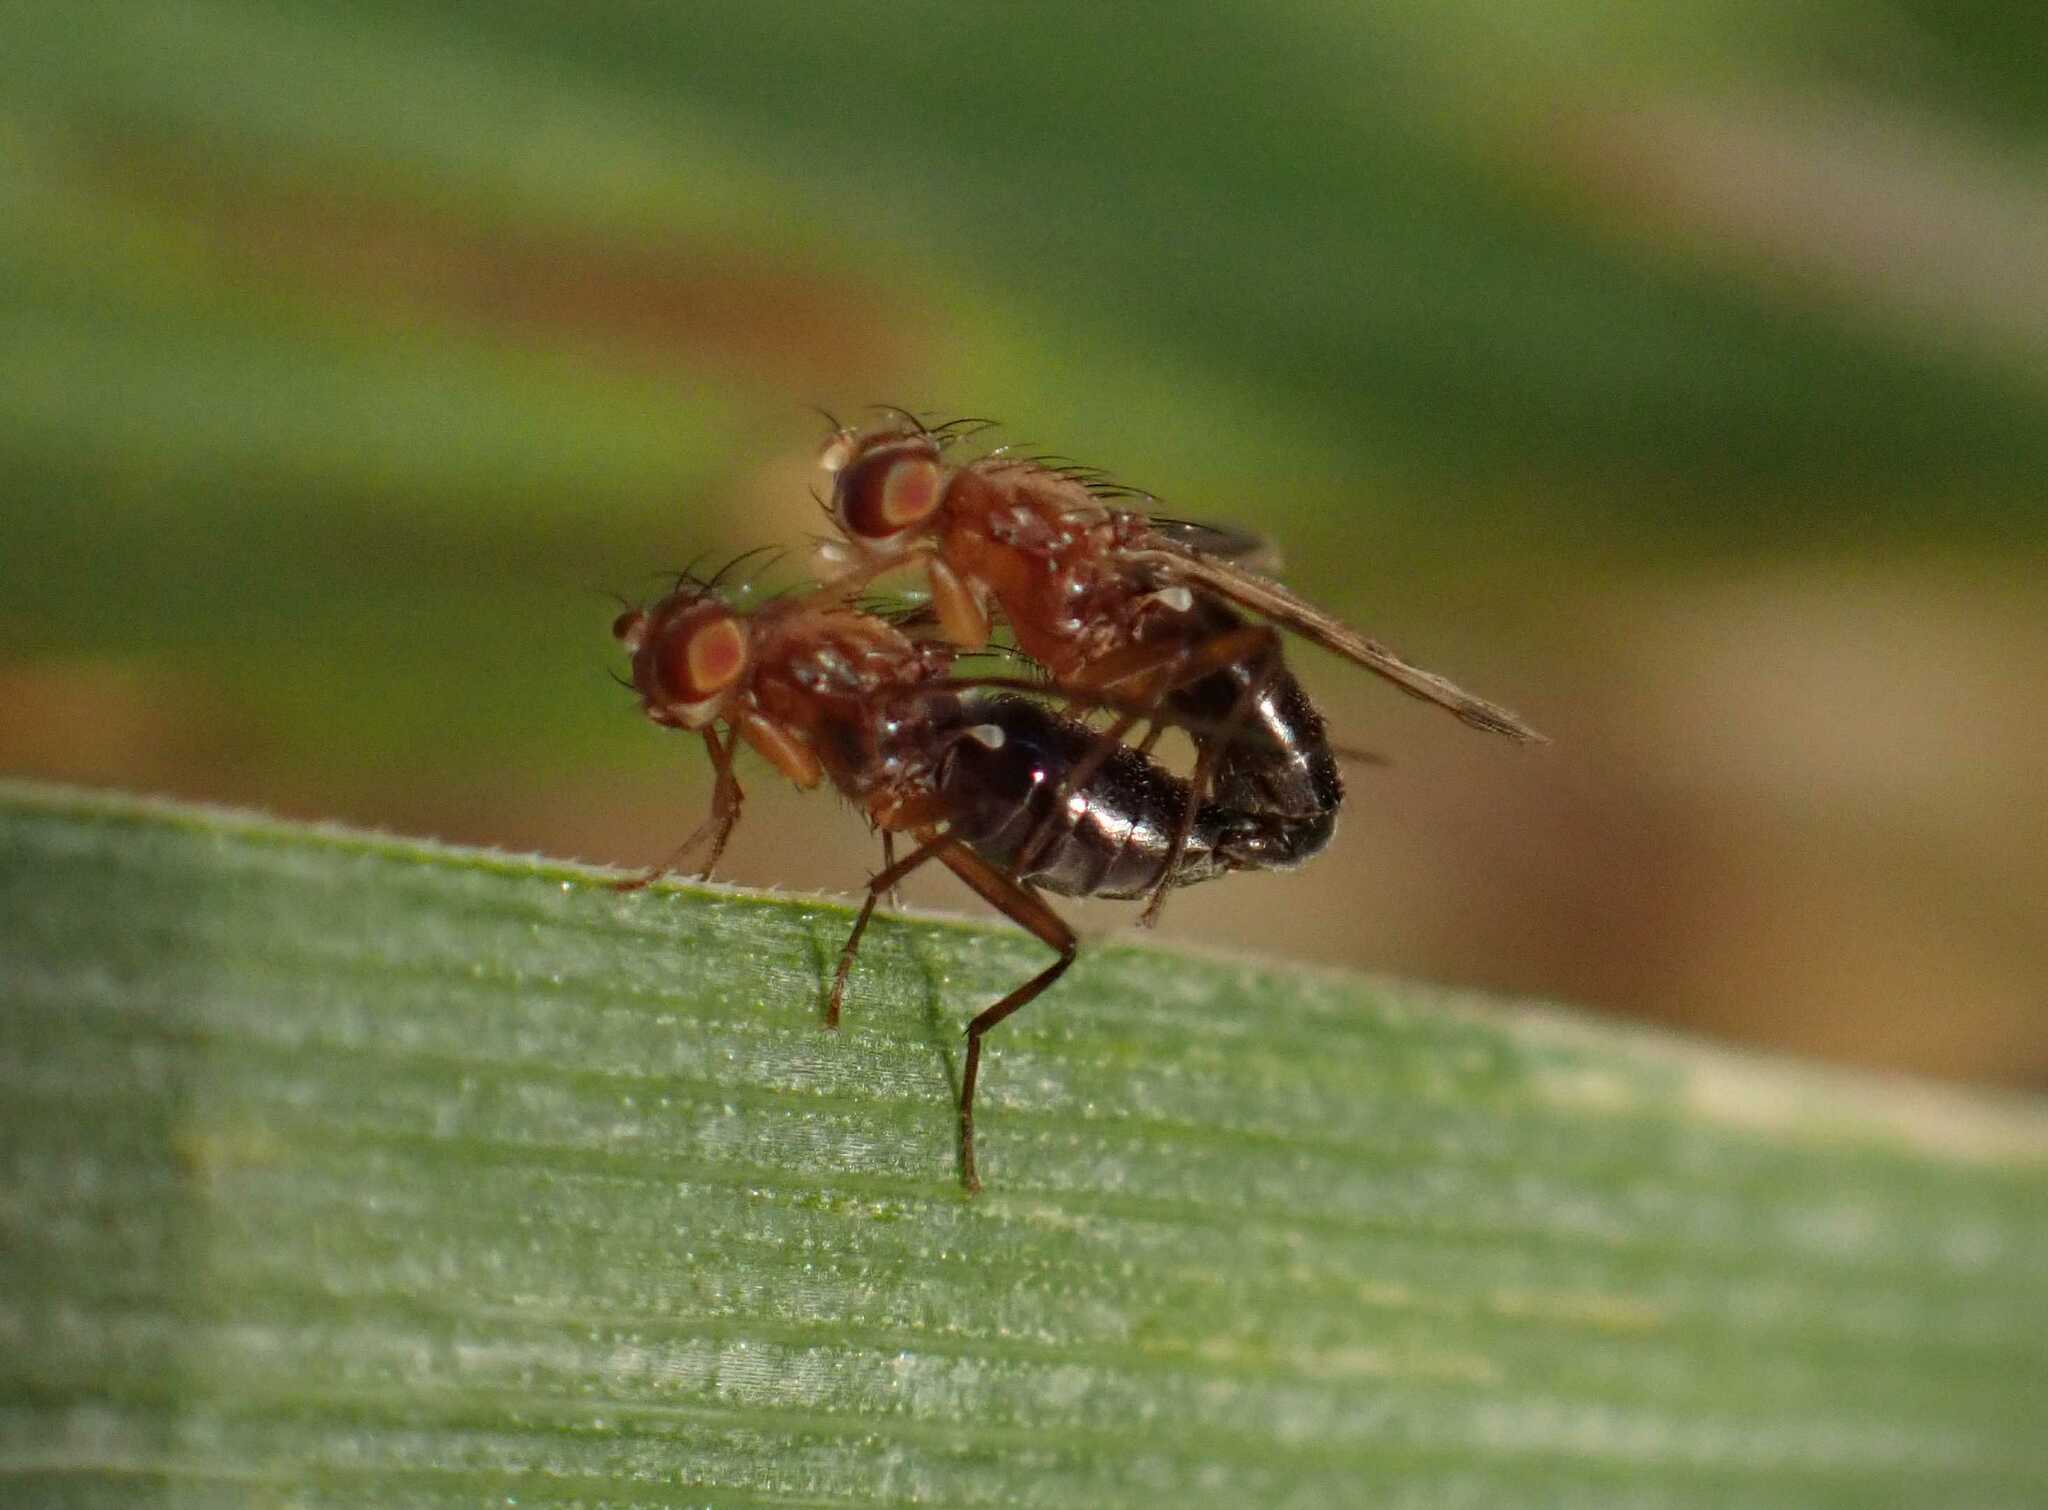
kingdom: Animalia
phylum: Arthropoda
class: Insecta
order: Diptera
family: Opomyzidae
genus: Geomyza
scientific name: Geomyza tripunctata
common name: Cereal fly
